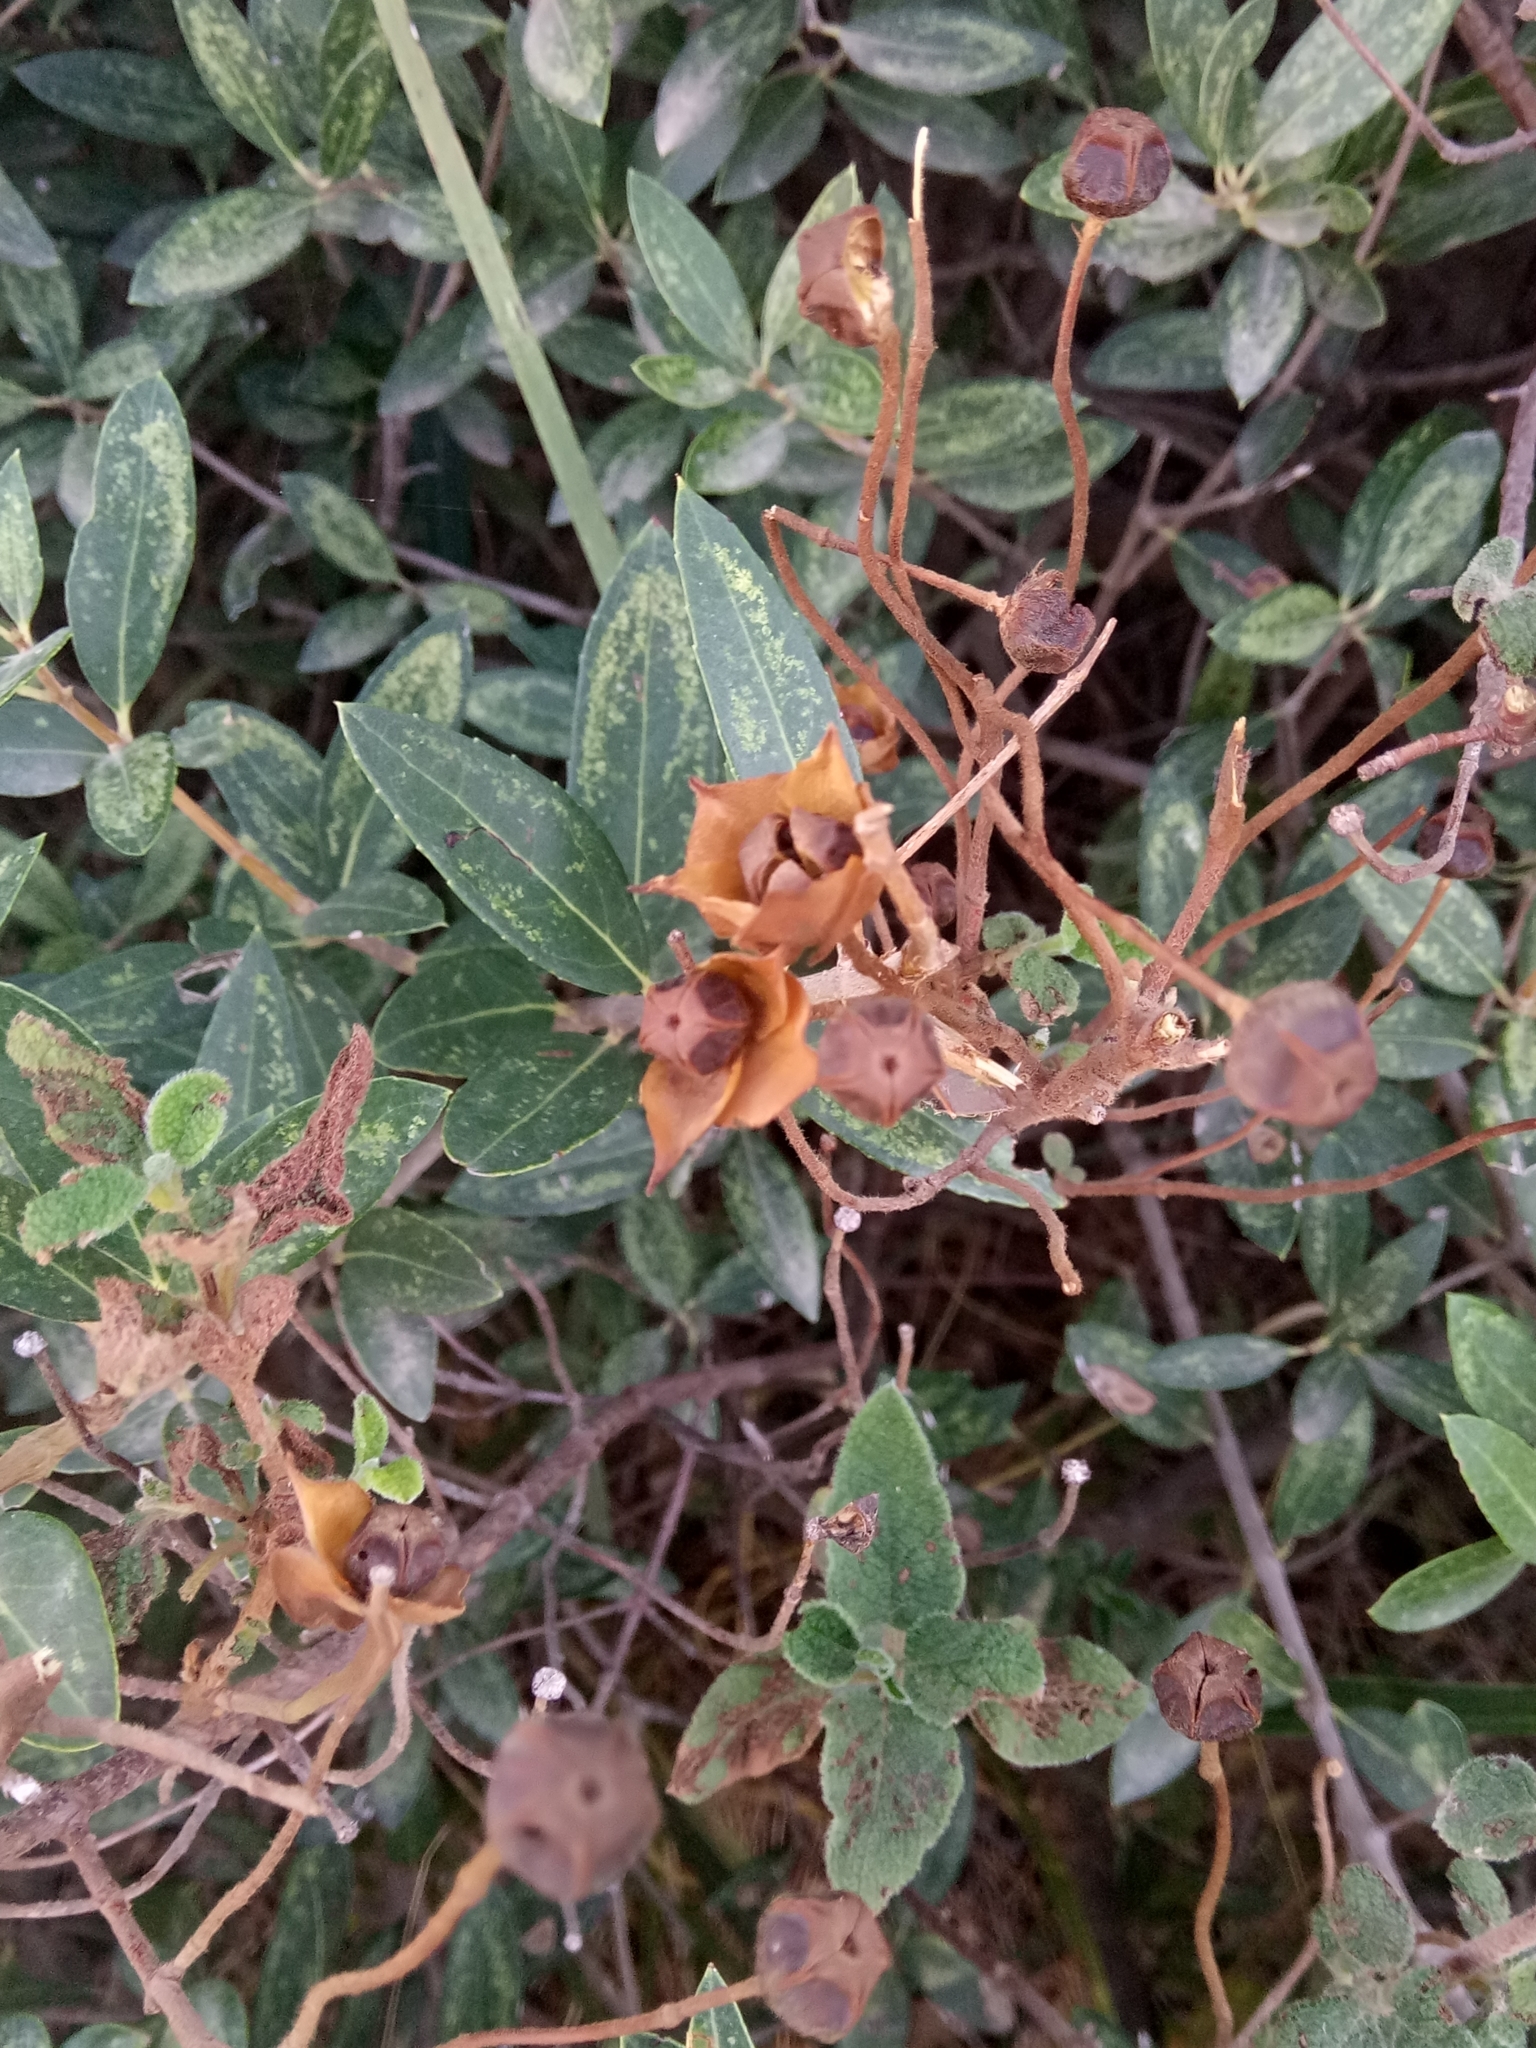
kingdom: Plantae
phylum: Tracheophyta
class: Magnoliopsida
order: Malvales
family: Cistaceae
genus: Cistus
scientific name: Cistus salviifolius
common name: Salvia cistus
